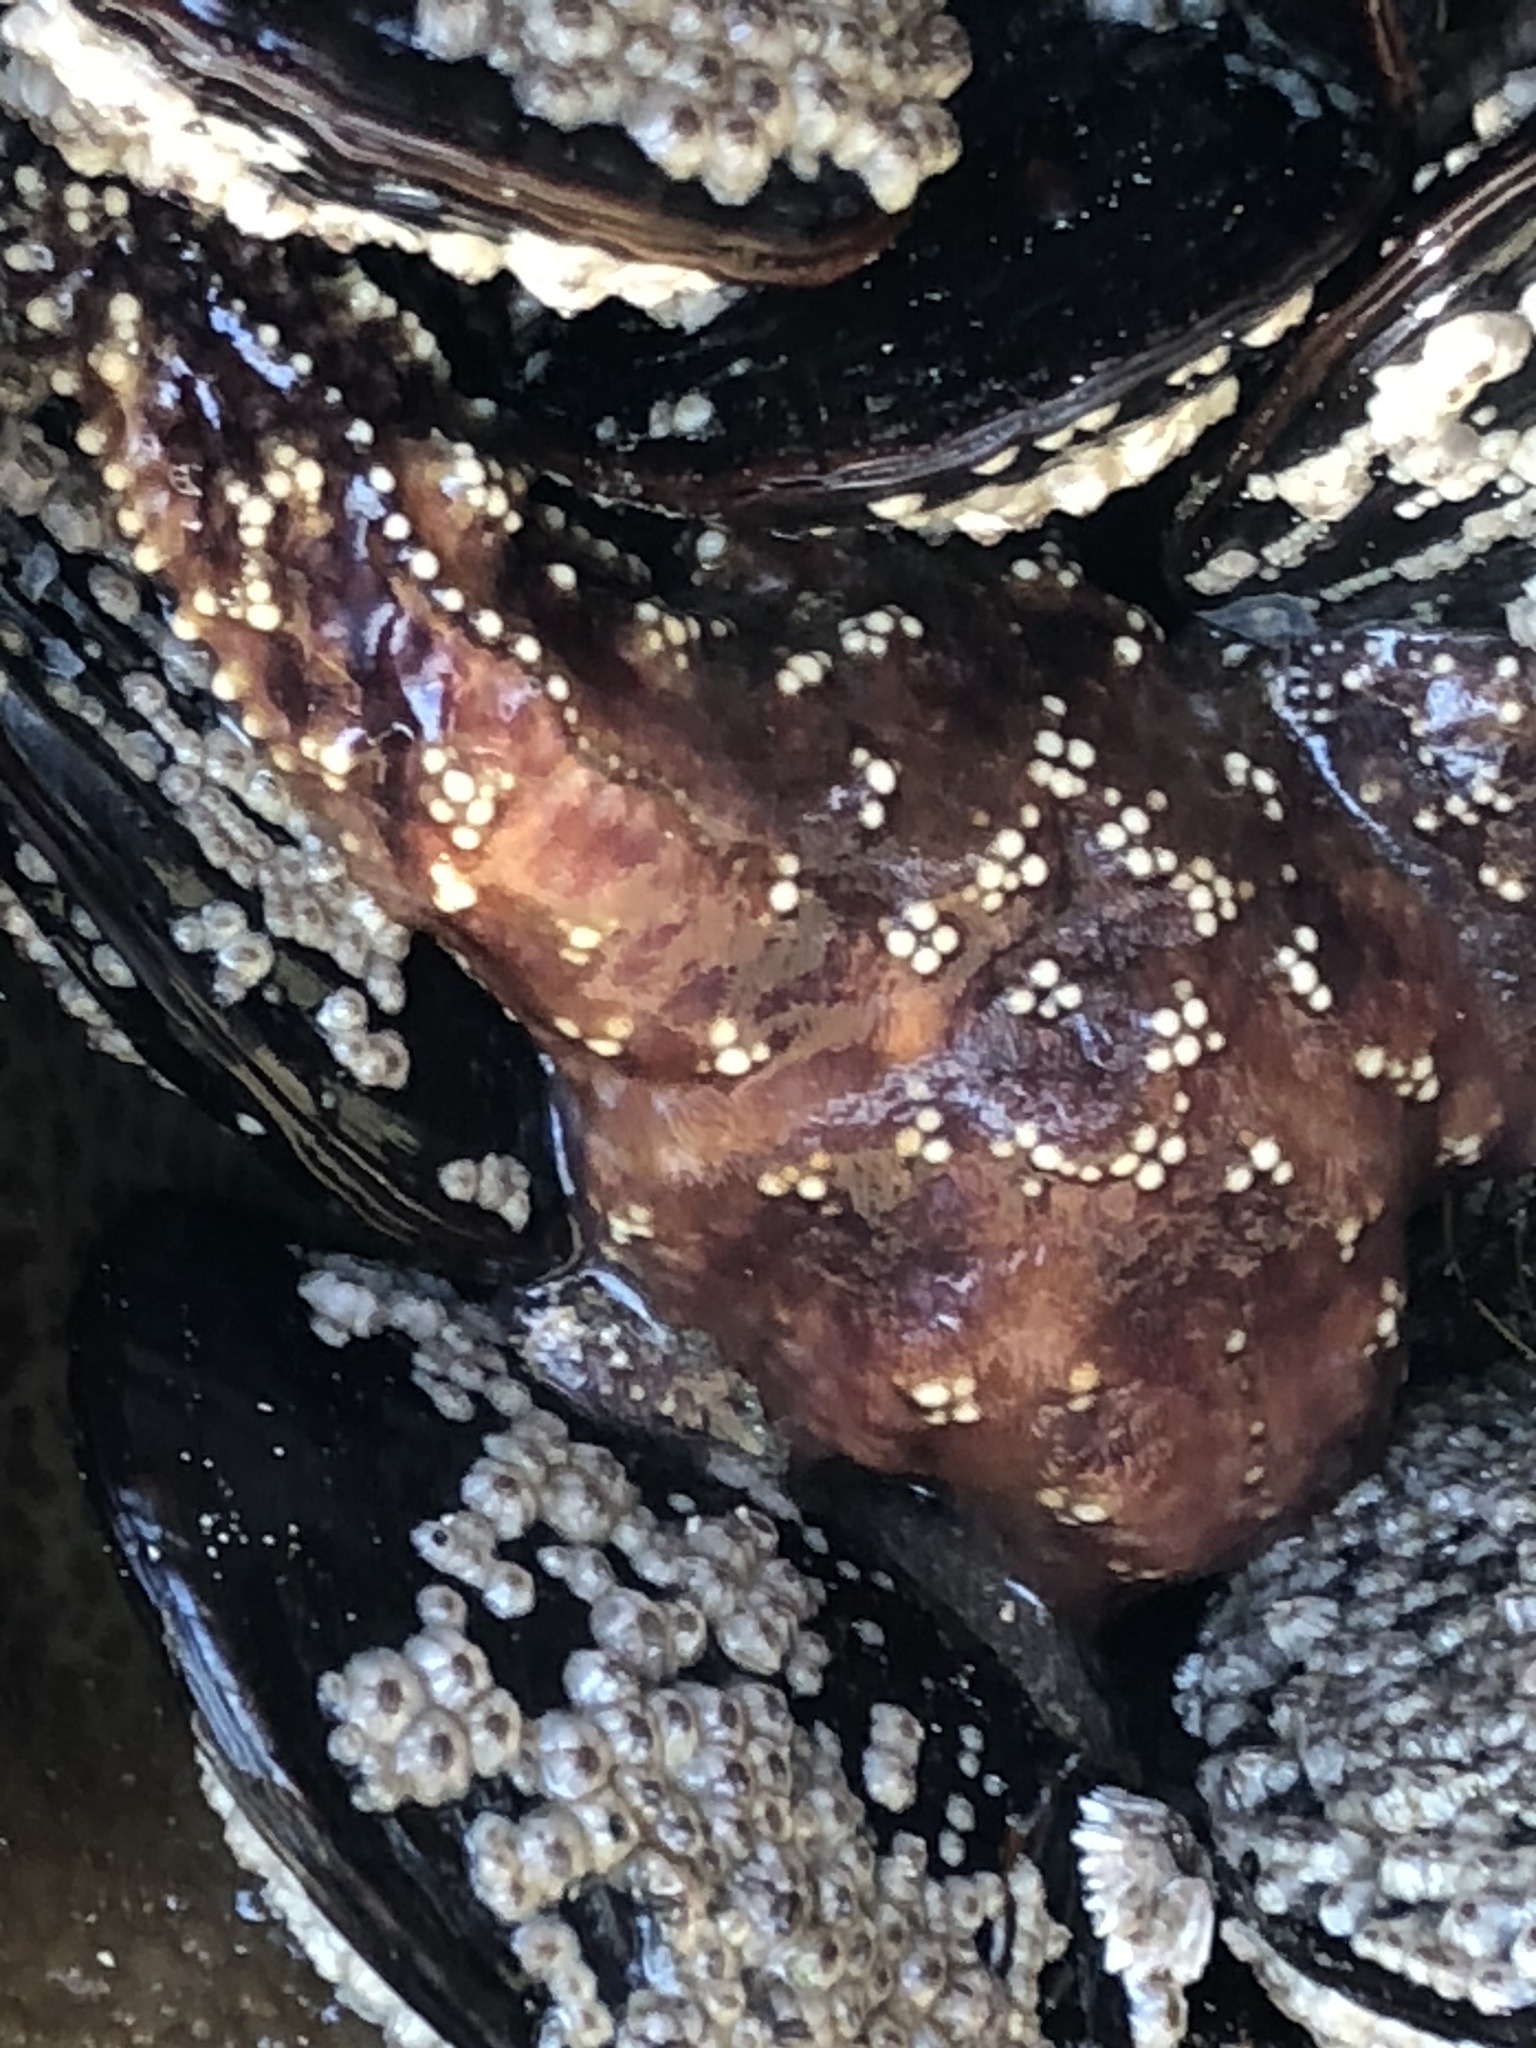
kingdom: Animalia
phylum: Echinodermata
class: Asteroidea
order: Forcipulatida
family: Asteriidae
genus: Pisaster
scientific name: Pisaster ochraceus
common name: Ochre stars
